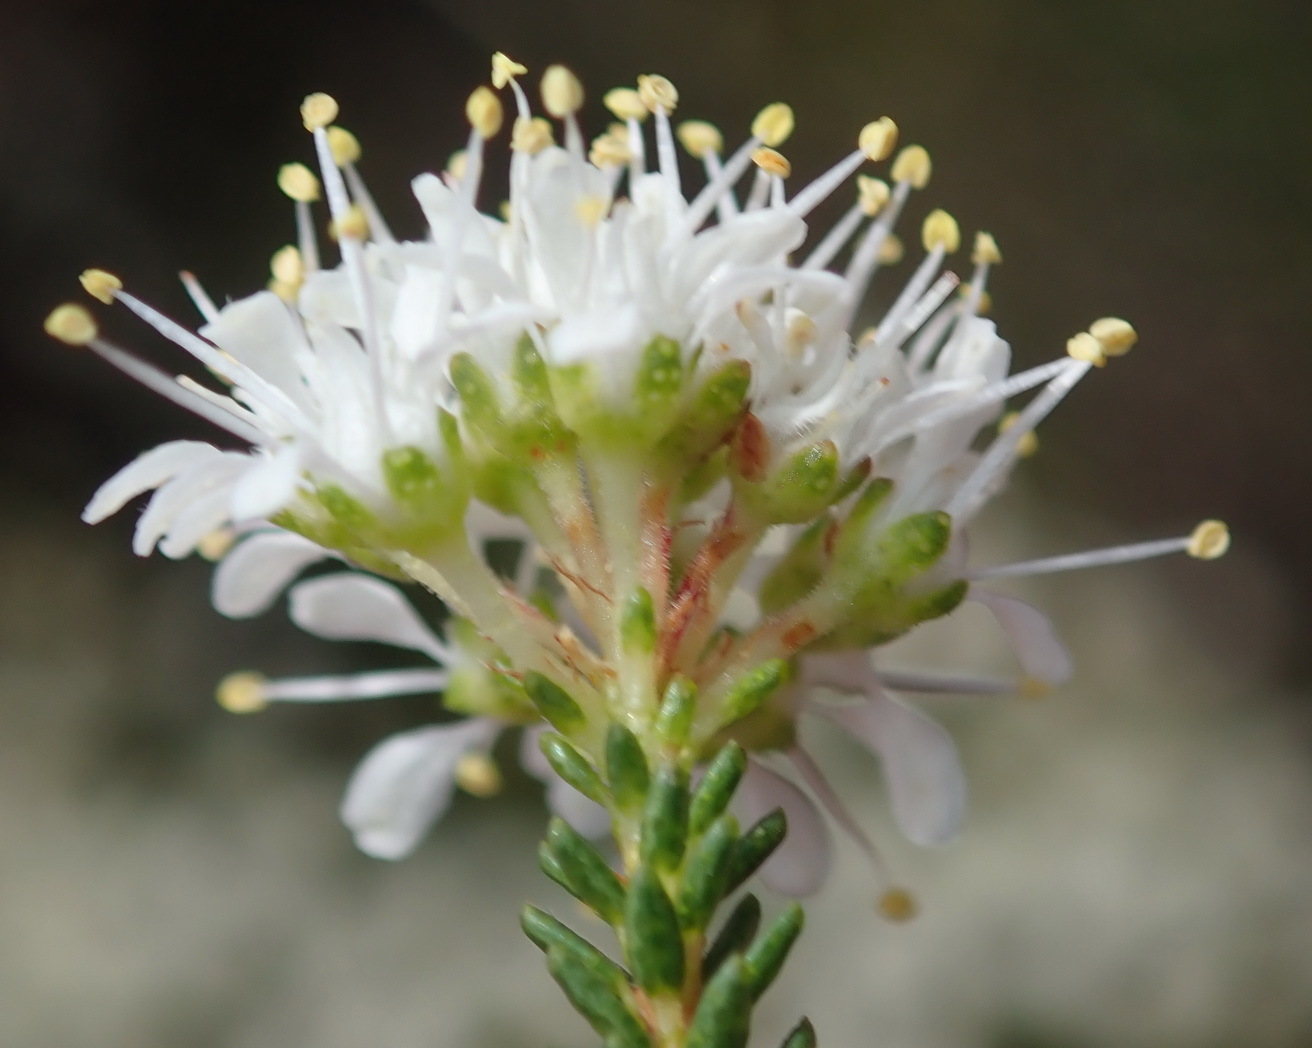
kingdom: Plantae
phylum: Tracheophyta
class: Magnoliopsida
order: Sapindales
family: Rutaceae
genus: Agathosma
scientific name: Agathosma capensis
